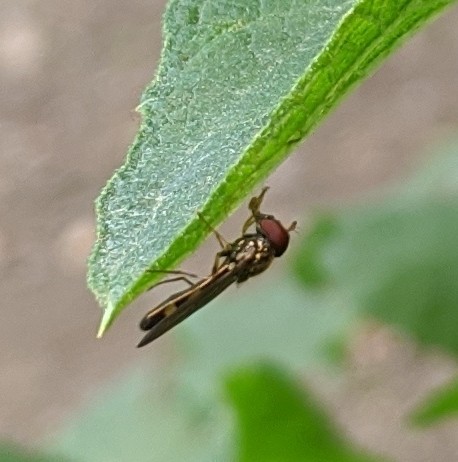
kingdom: Animalia
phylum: Arthropoda
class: Insecta
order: Diptera
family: Syrphidae
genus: Melanostoma
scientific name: Melanostoma mellina
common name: Hover fly
